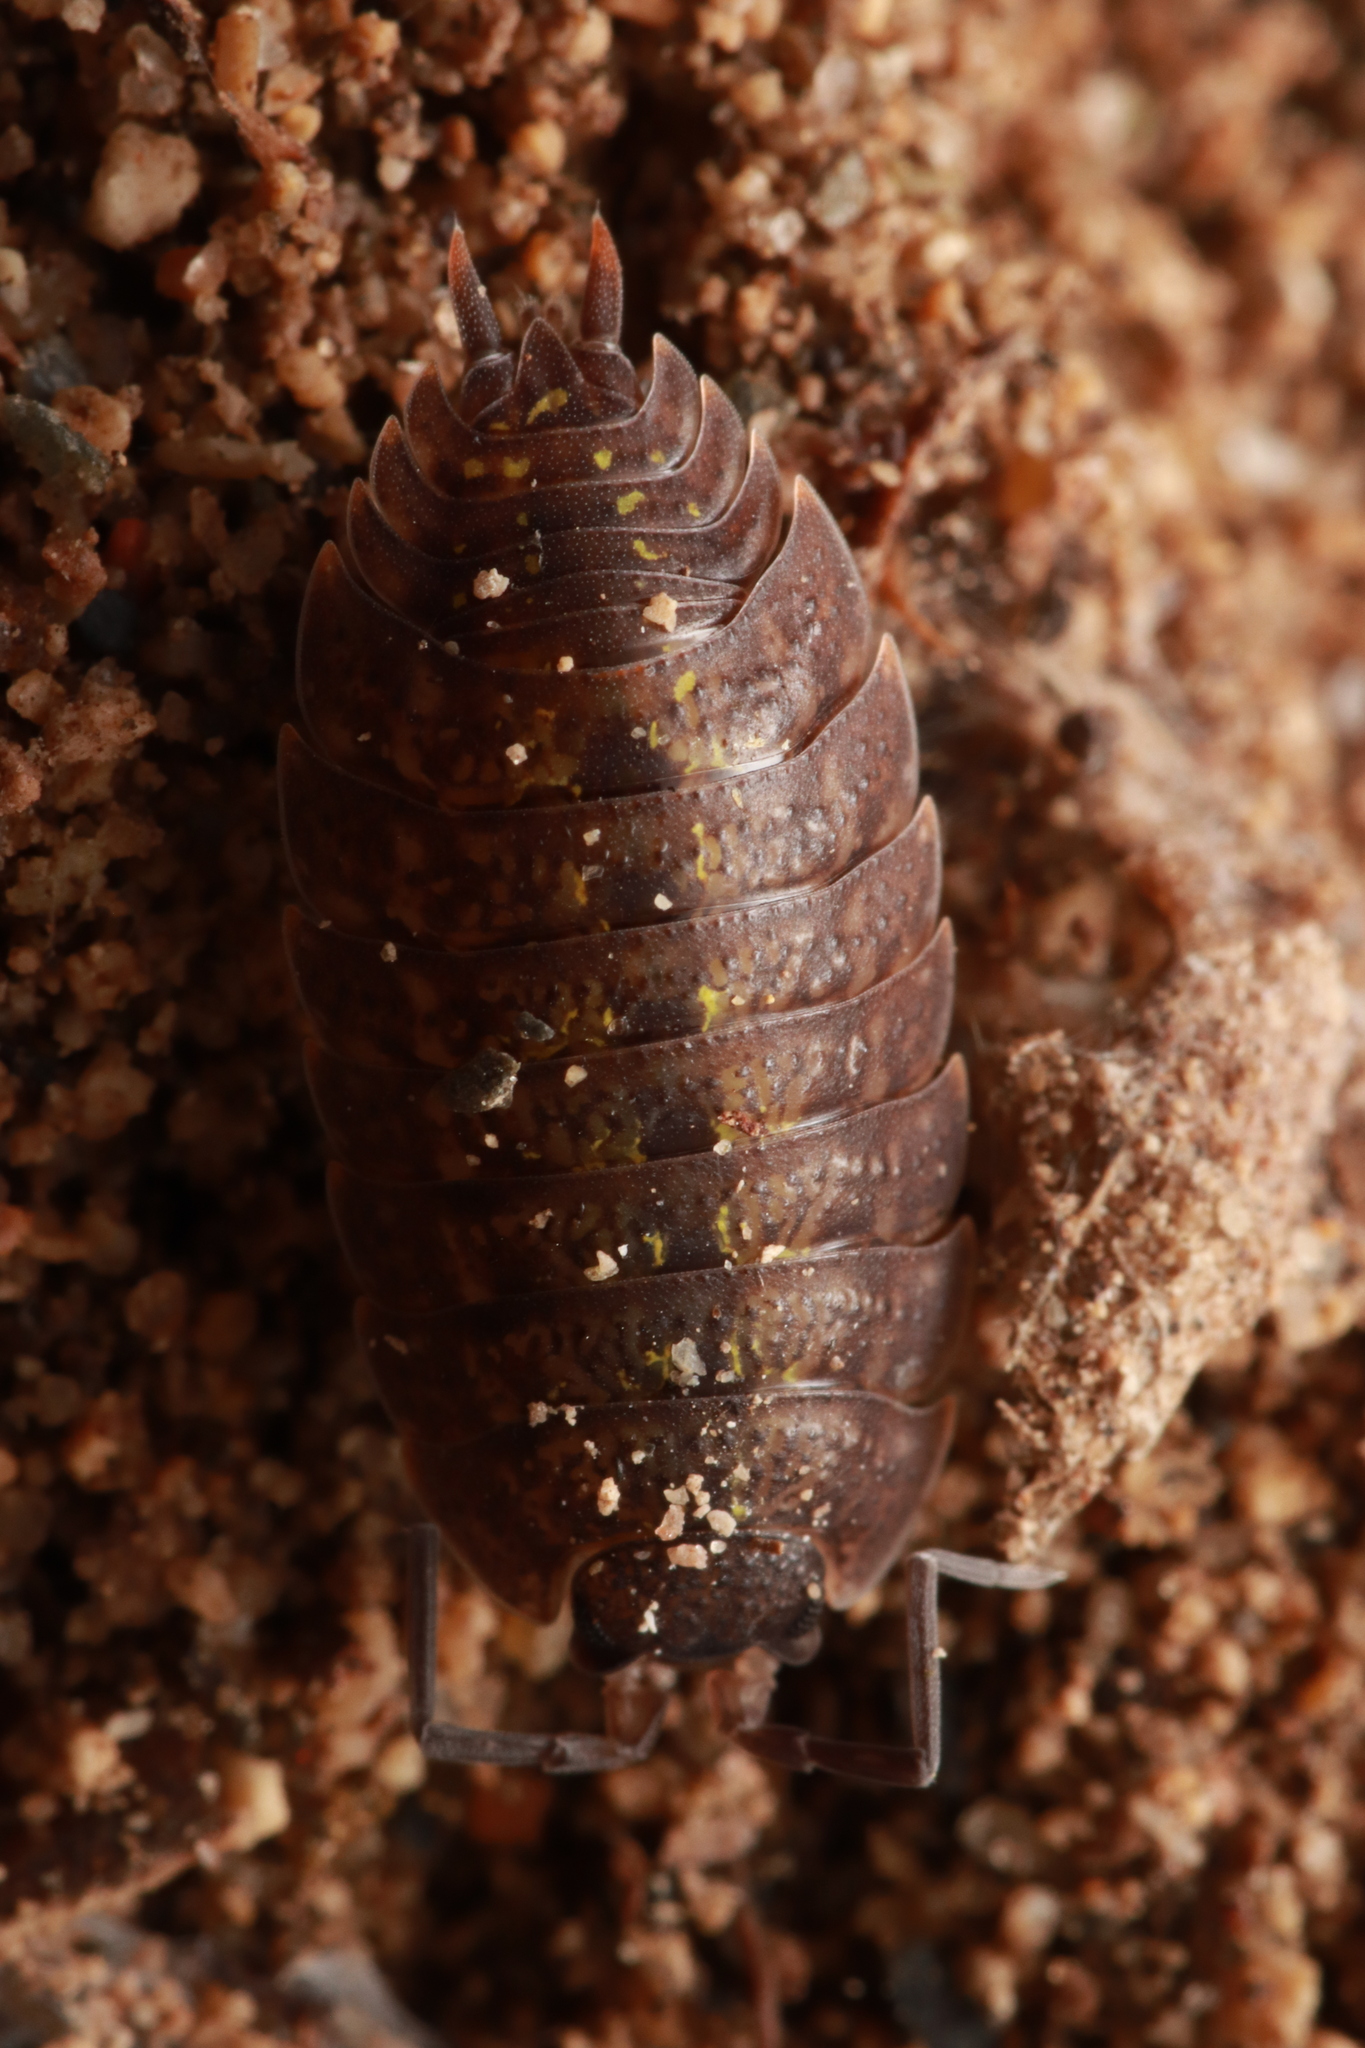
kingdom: Animalia
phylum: Arthropoda
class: Malacostraca
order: Isopoda
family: Porcellionidae
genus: Porcellio
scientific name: Porcellio monticola
